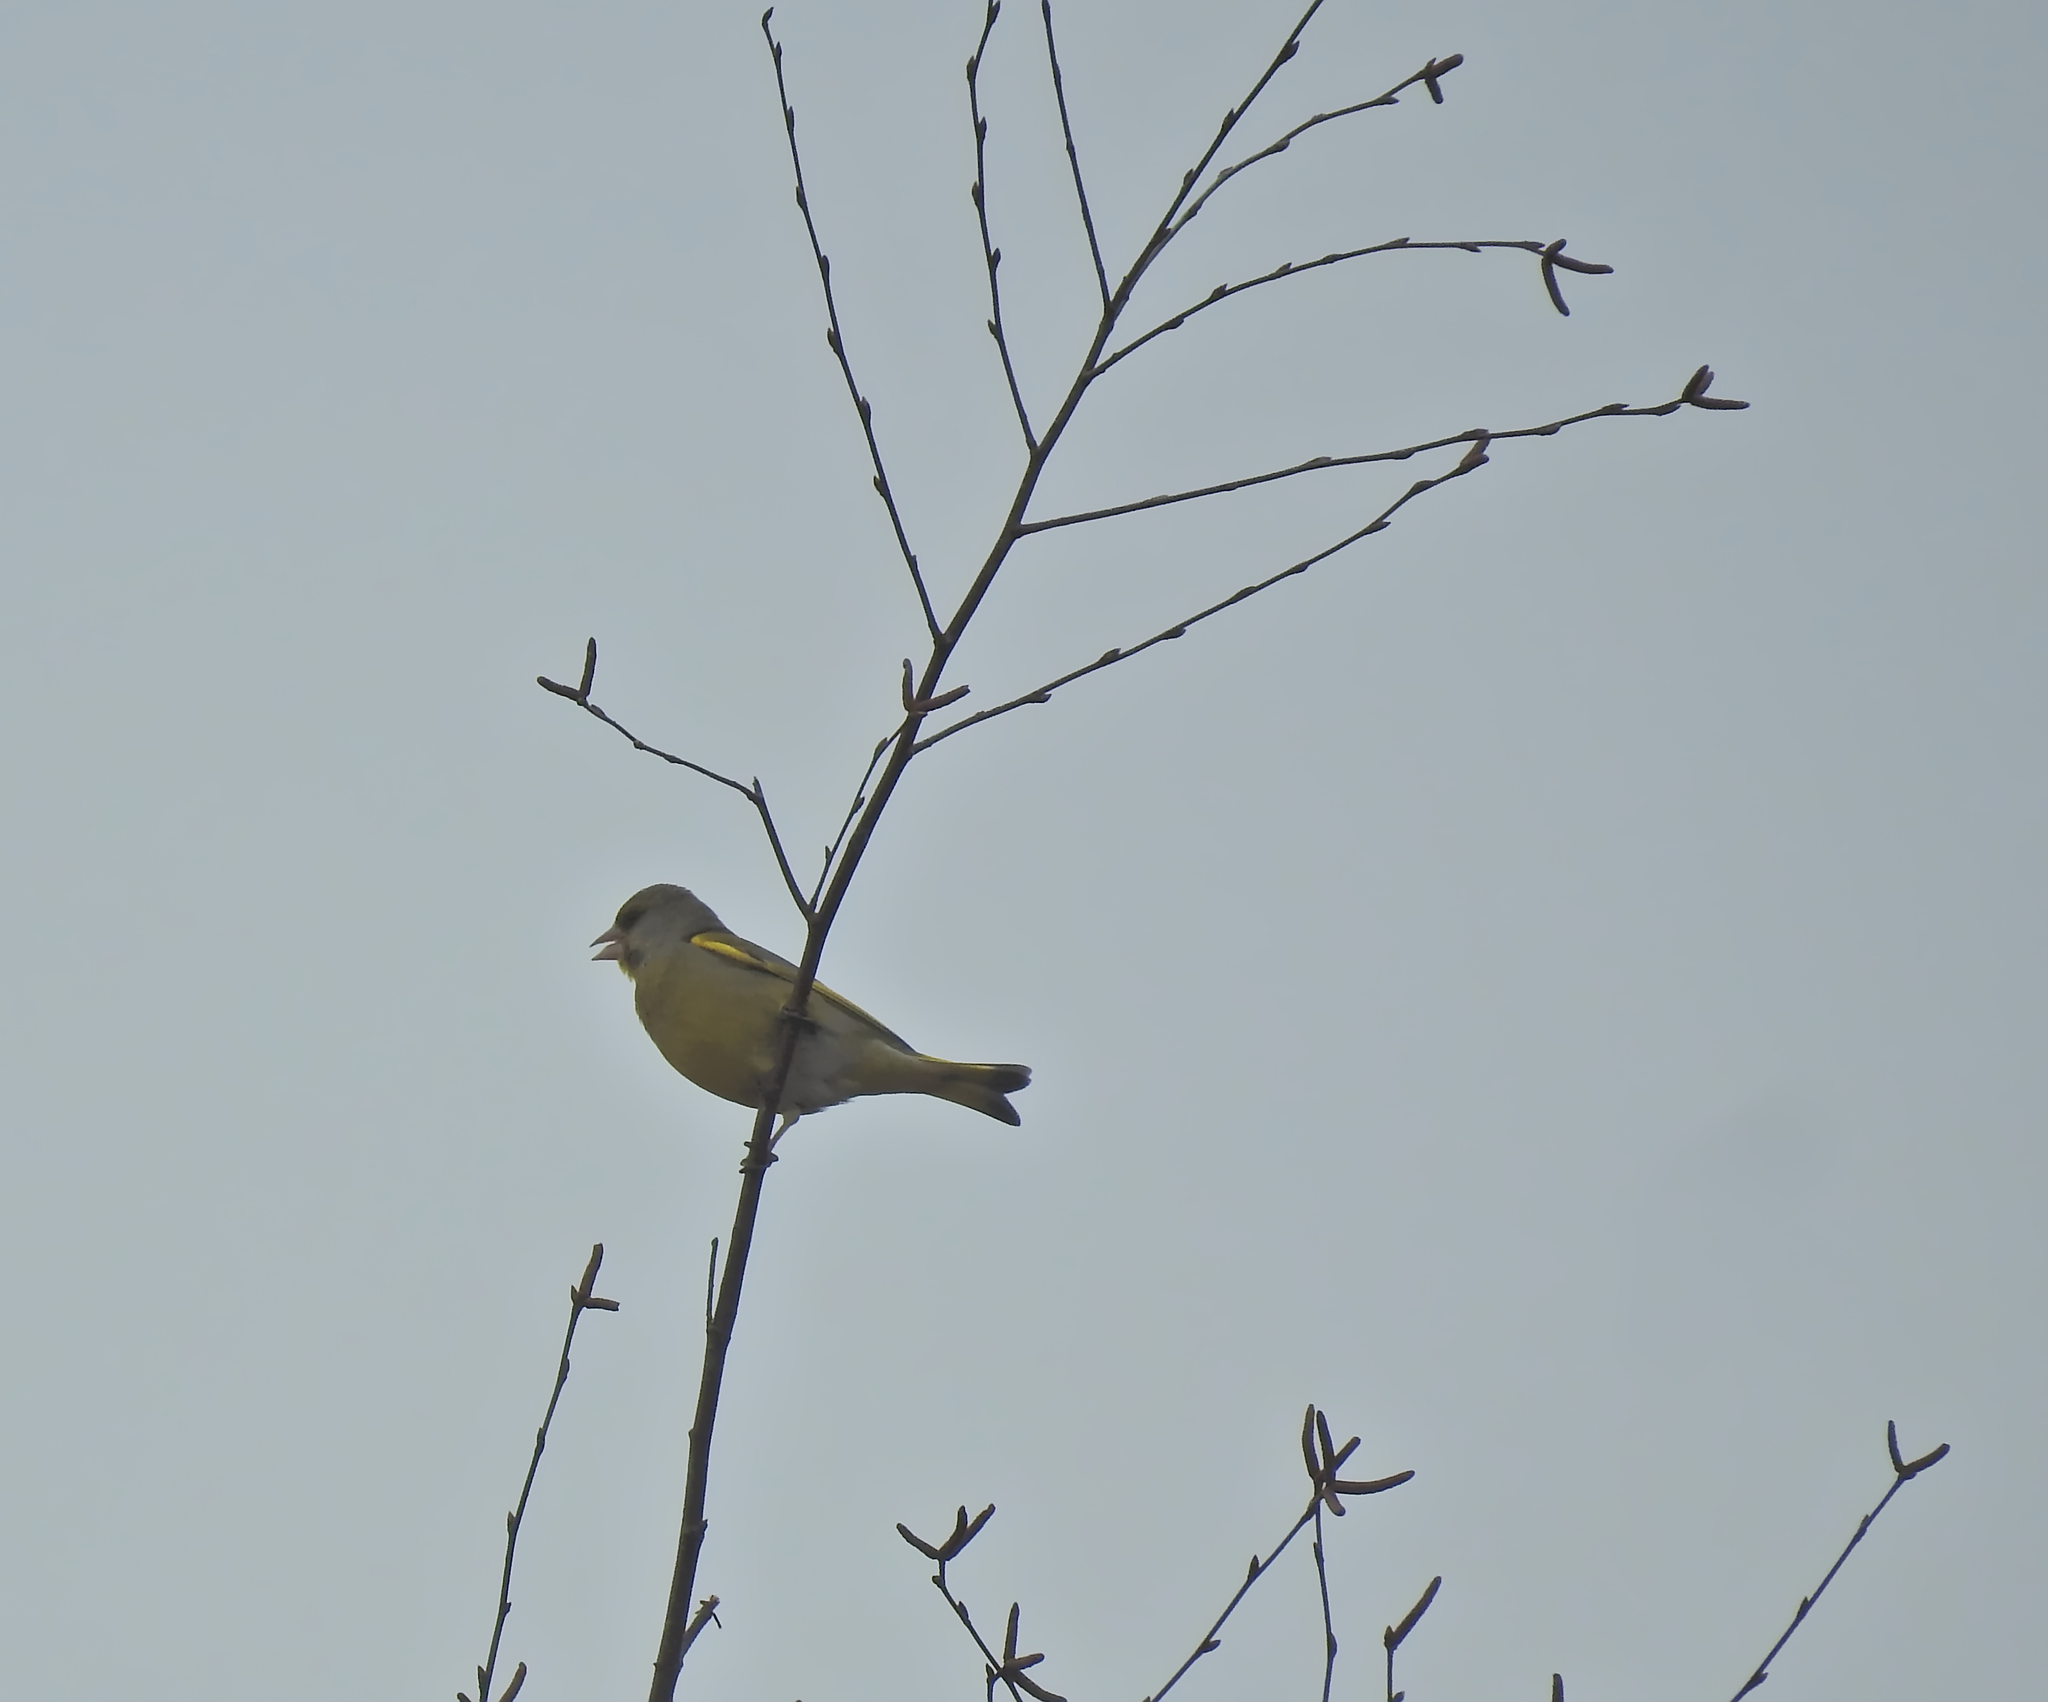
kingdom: Plantae
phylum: Tracheophyta
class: Liliopsida
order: Poales
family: Poaceae
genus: Chloris
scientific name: Chloris chloris
